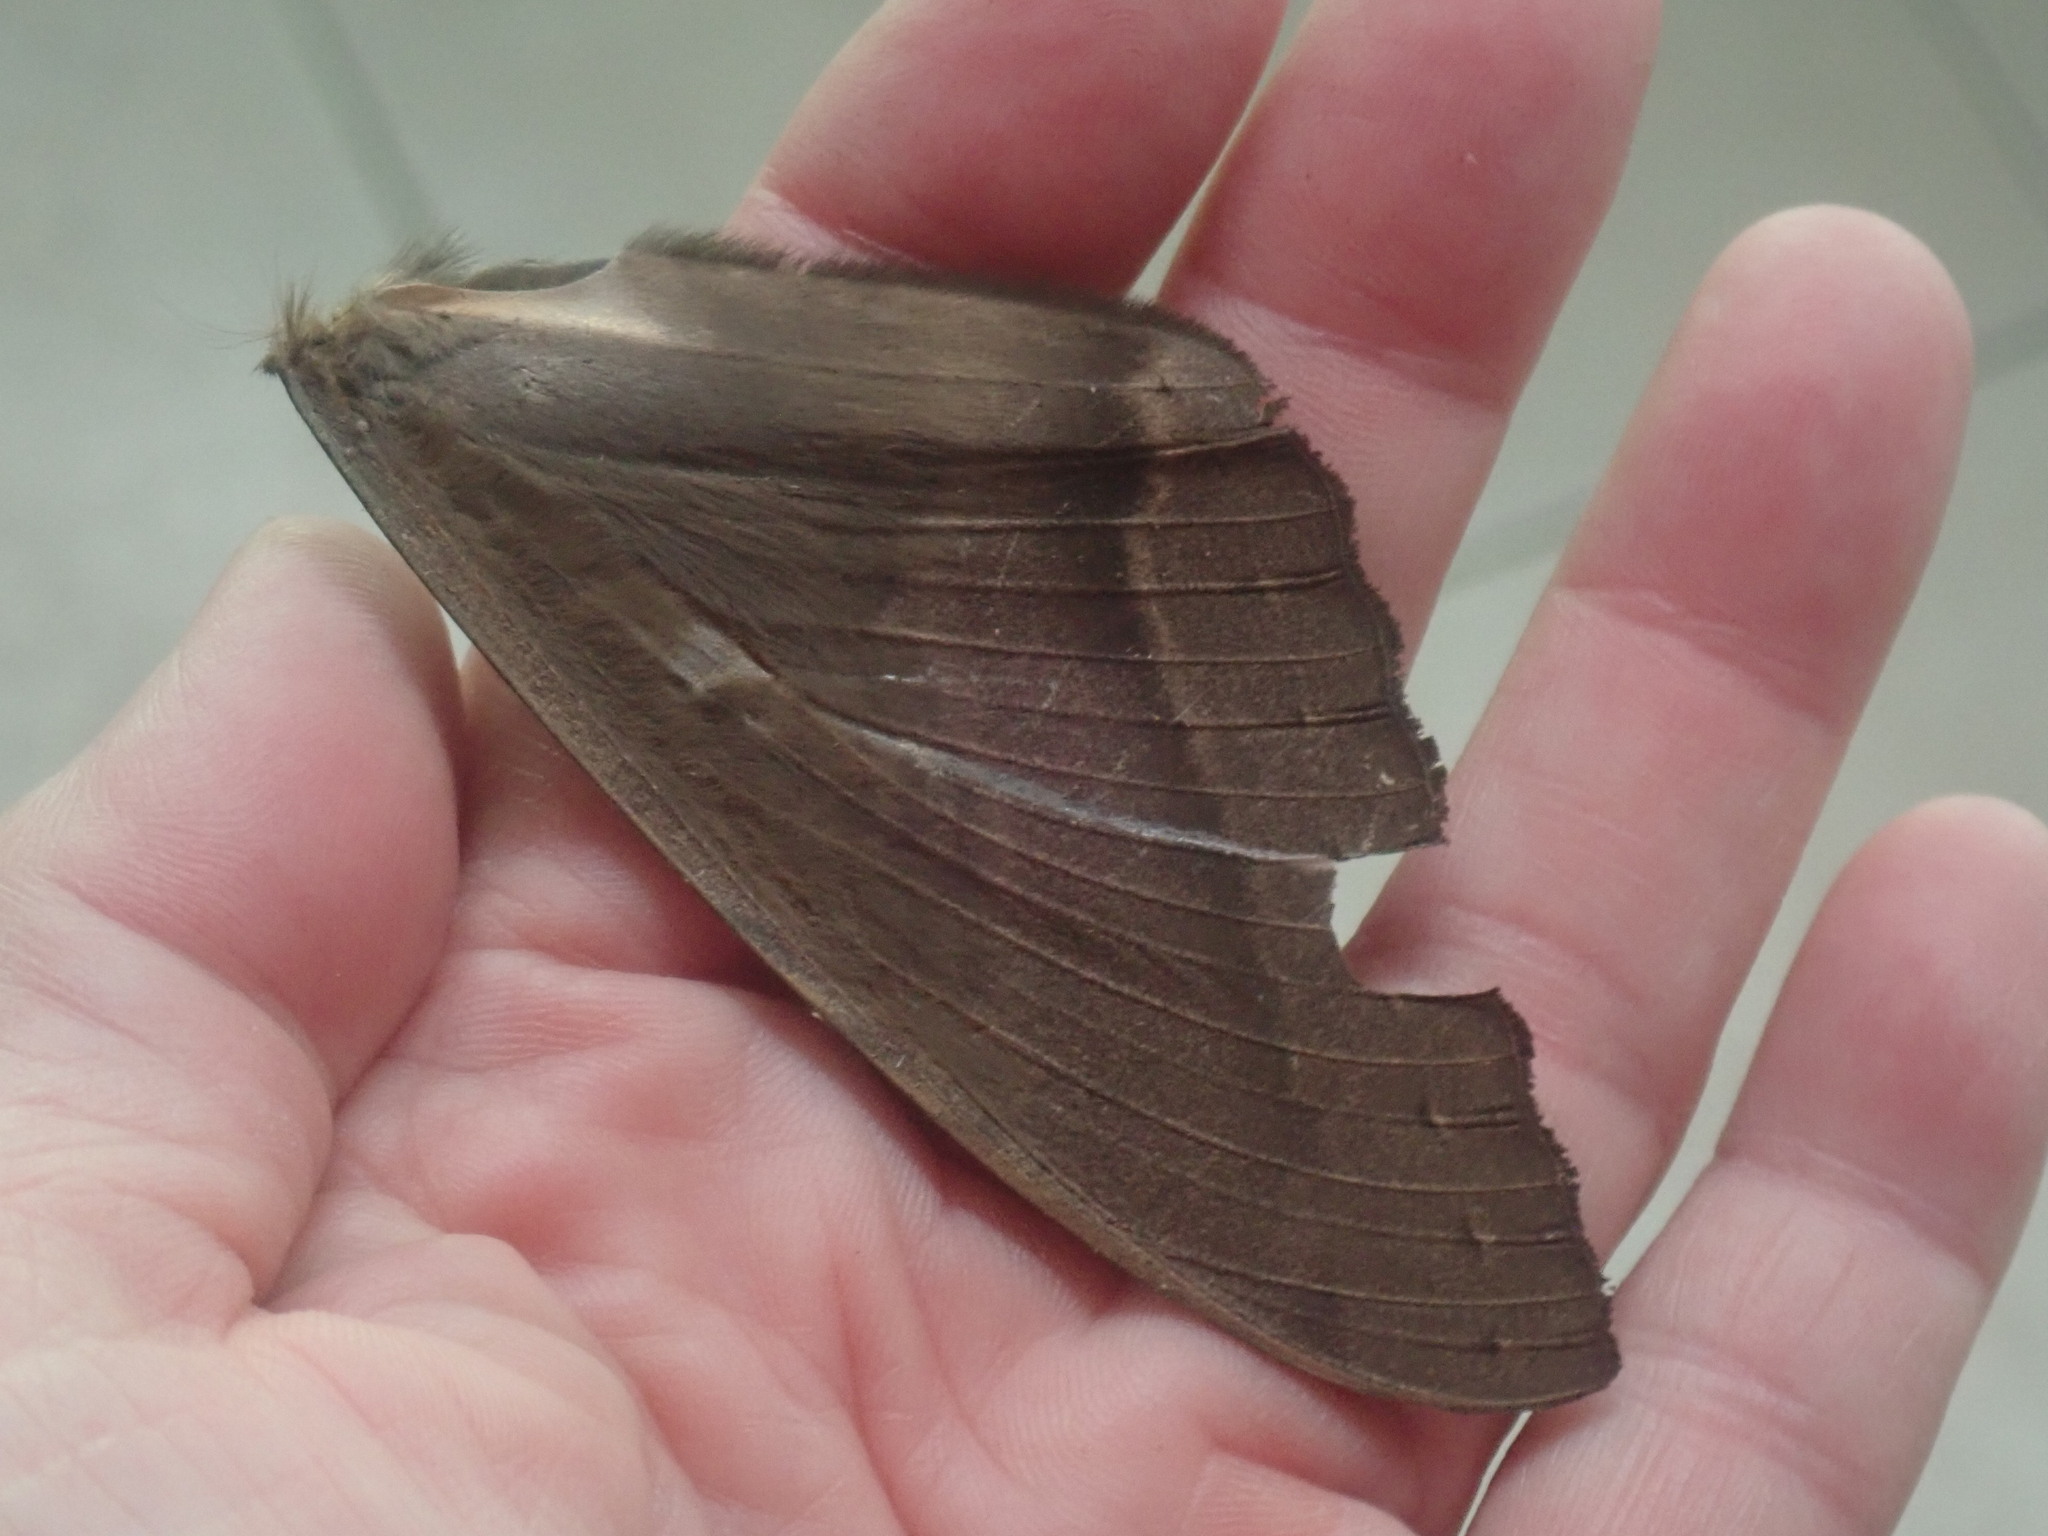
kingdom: Animalia
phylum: Arthropoda
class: Insecta
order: Lepidoptera
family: Erebidae
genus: Ascalapha
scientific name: Ascalapha odorata
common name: Black witch
